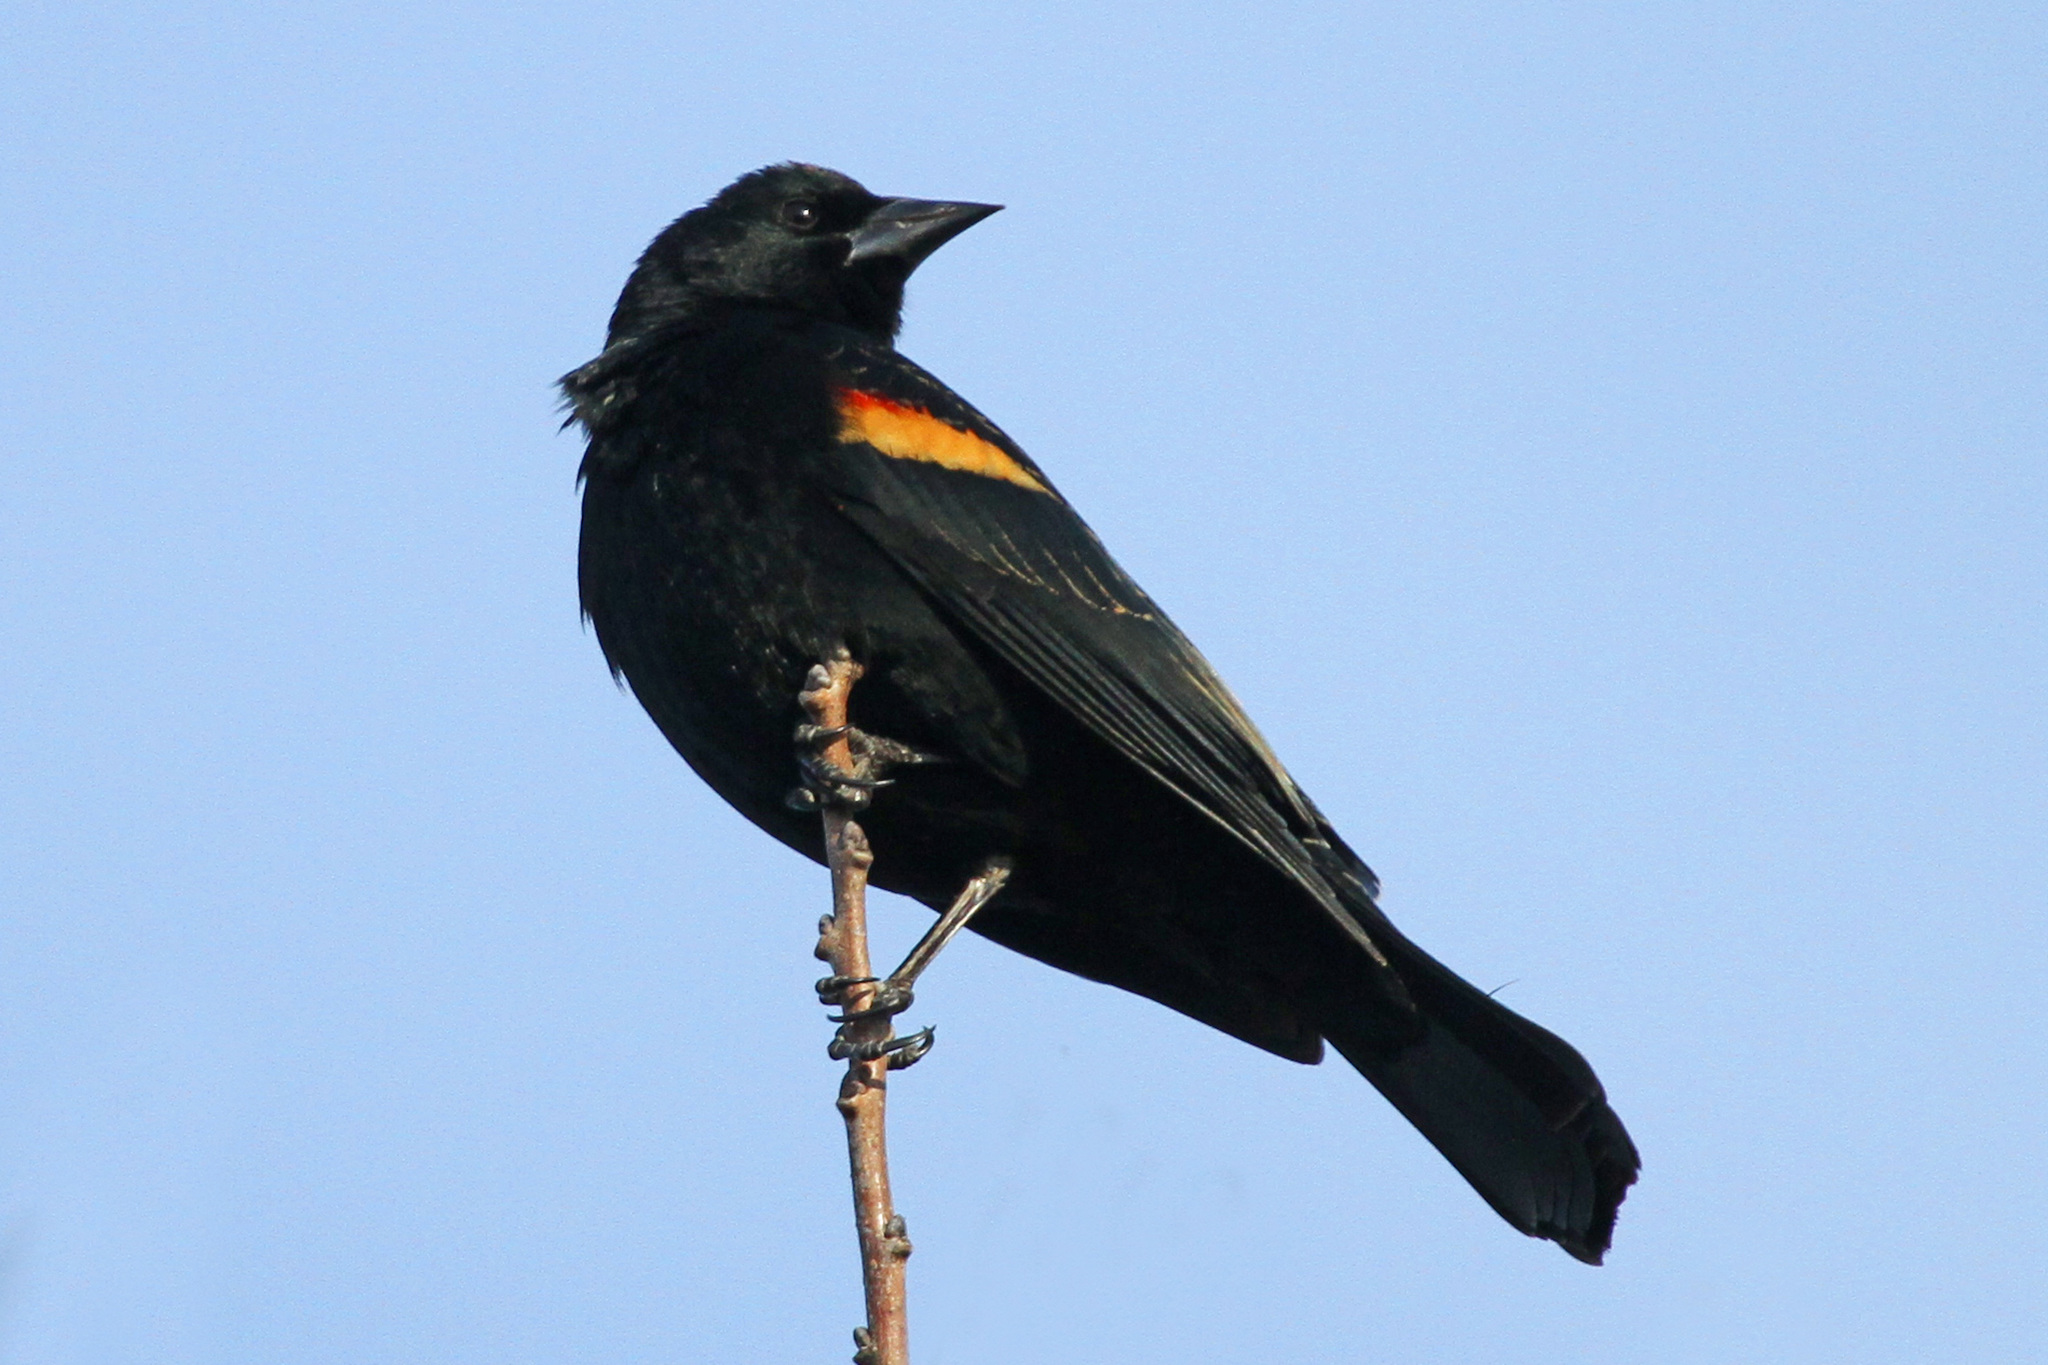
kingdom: Animalia
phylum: Chordata
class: Aves
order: Passeriformes
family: Icteridae
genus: Agelaius
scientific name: Agelaius phoeniceus
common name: Red-winged blackbird
